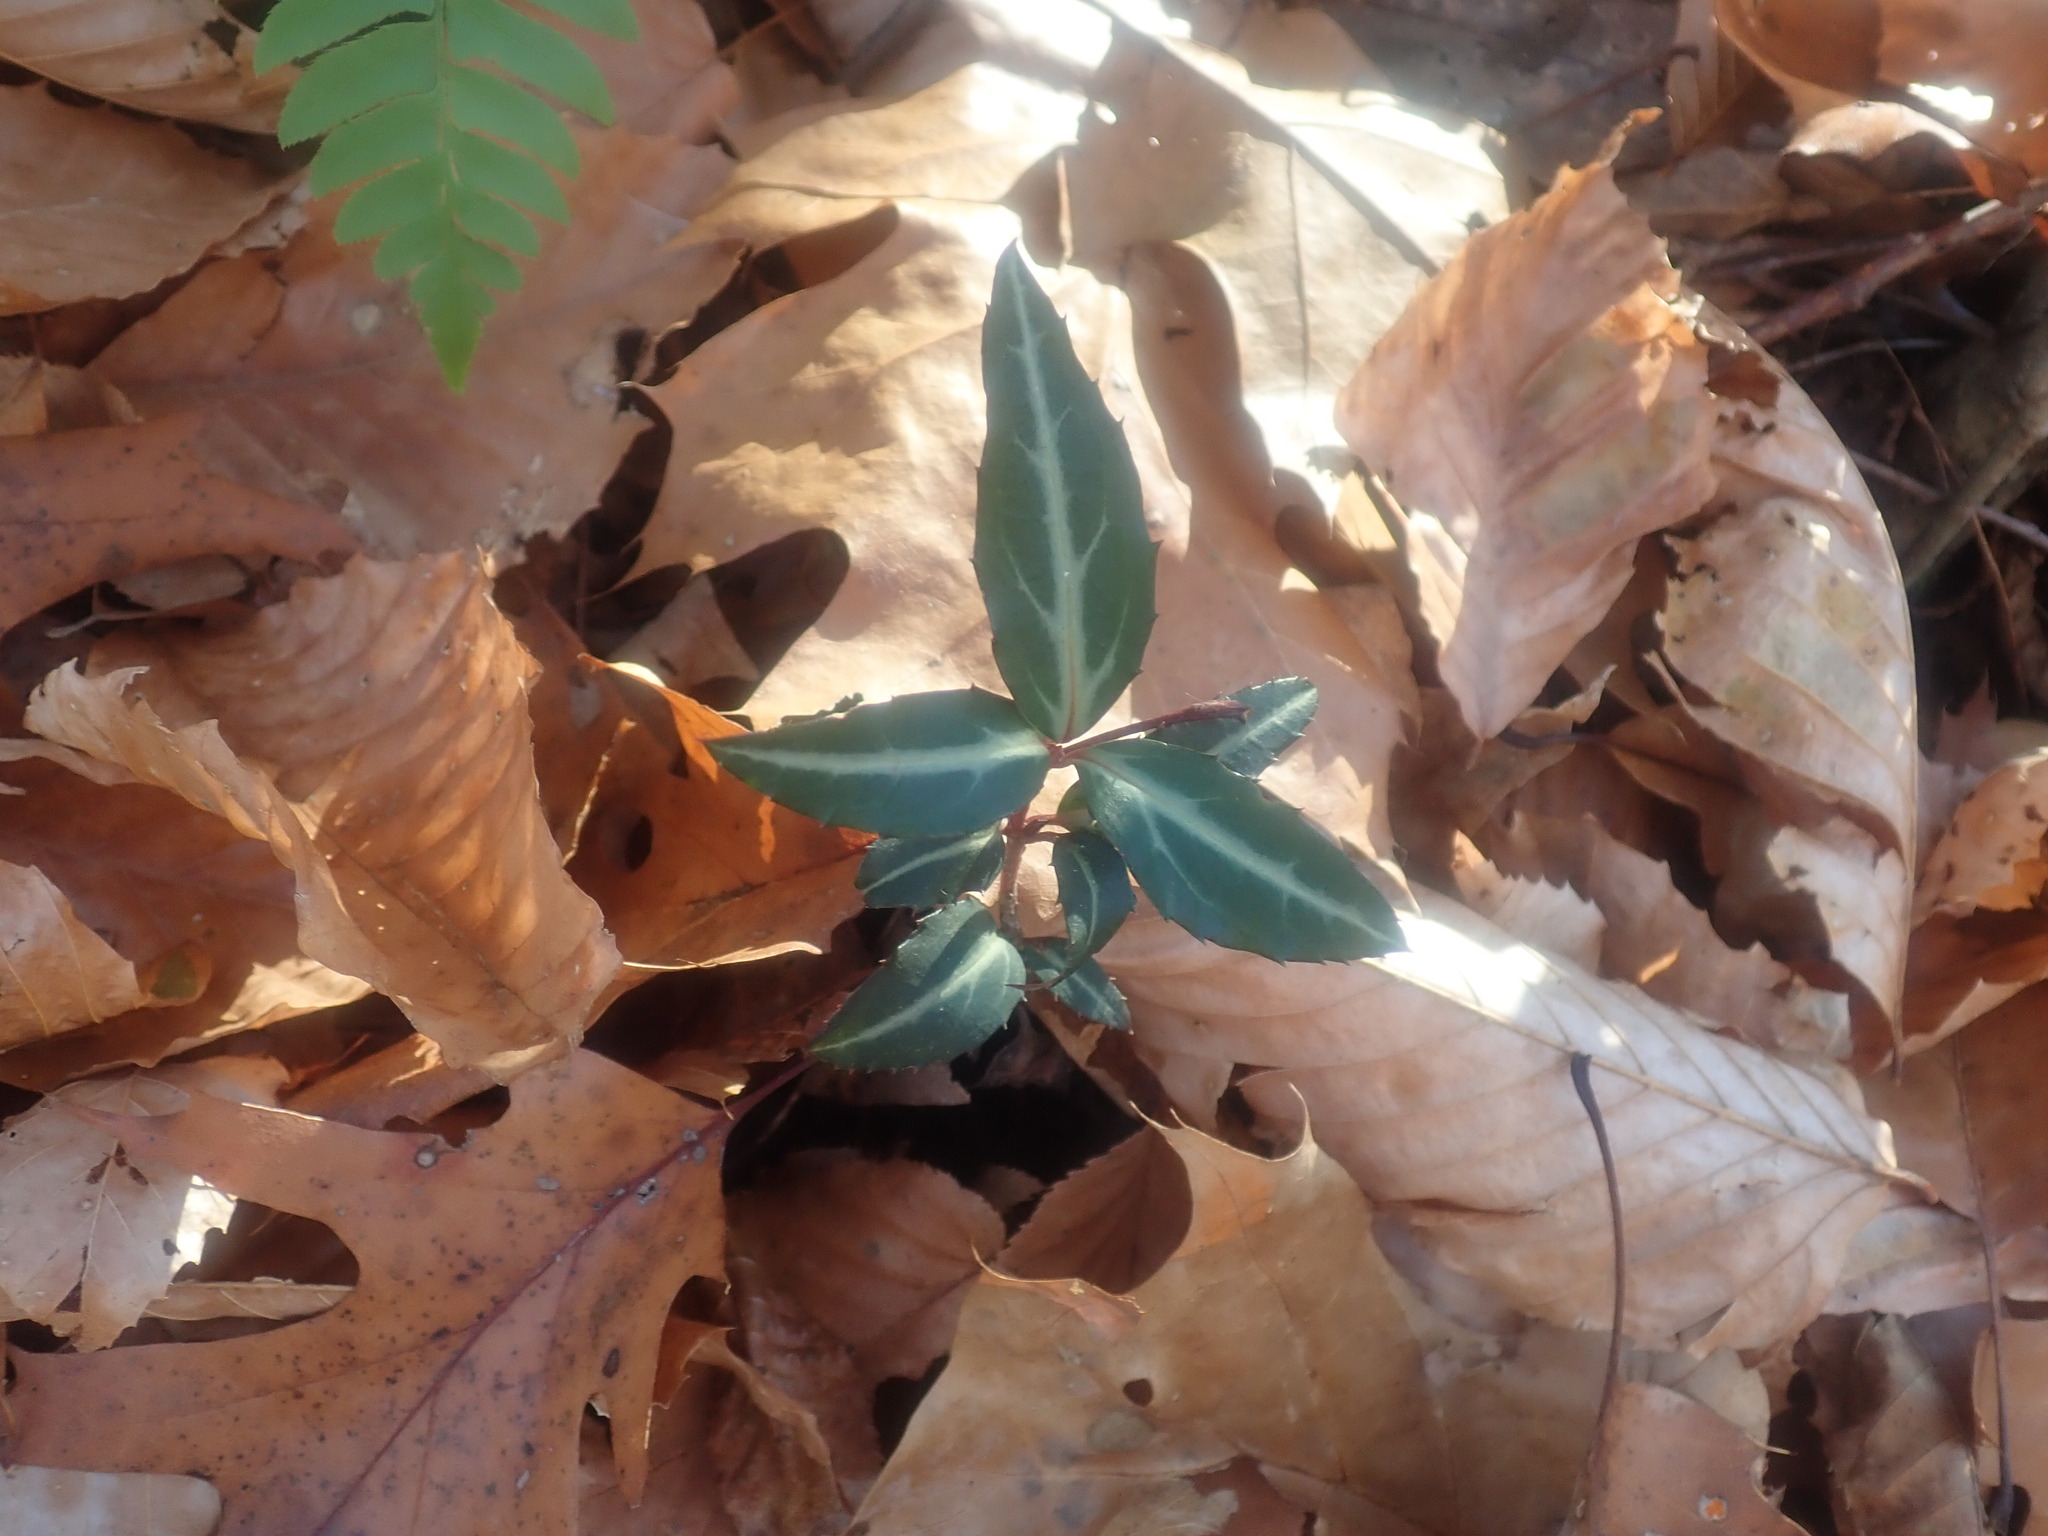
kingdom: Plantae
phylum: Tracheophyta
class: Magnoliopsida
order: Ericales
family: Ericaceae
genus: Chimaphila
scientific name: Chimaphila maculata
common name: Spotted pipsissewa
